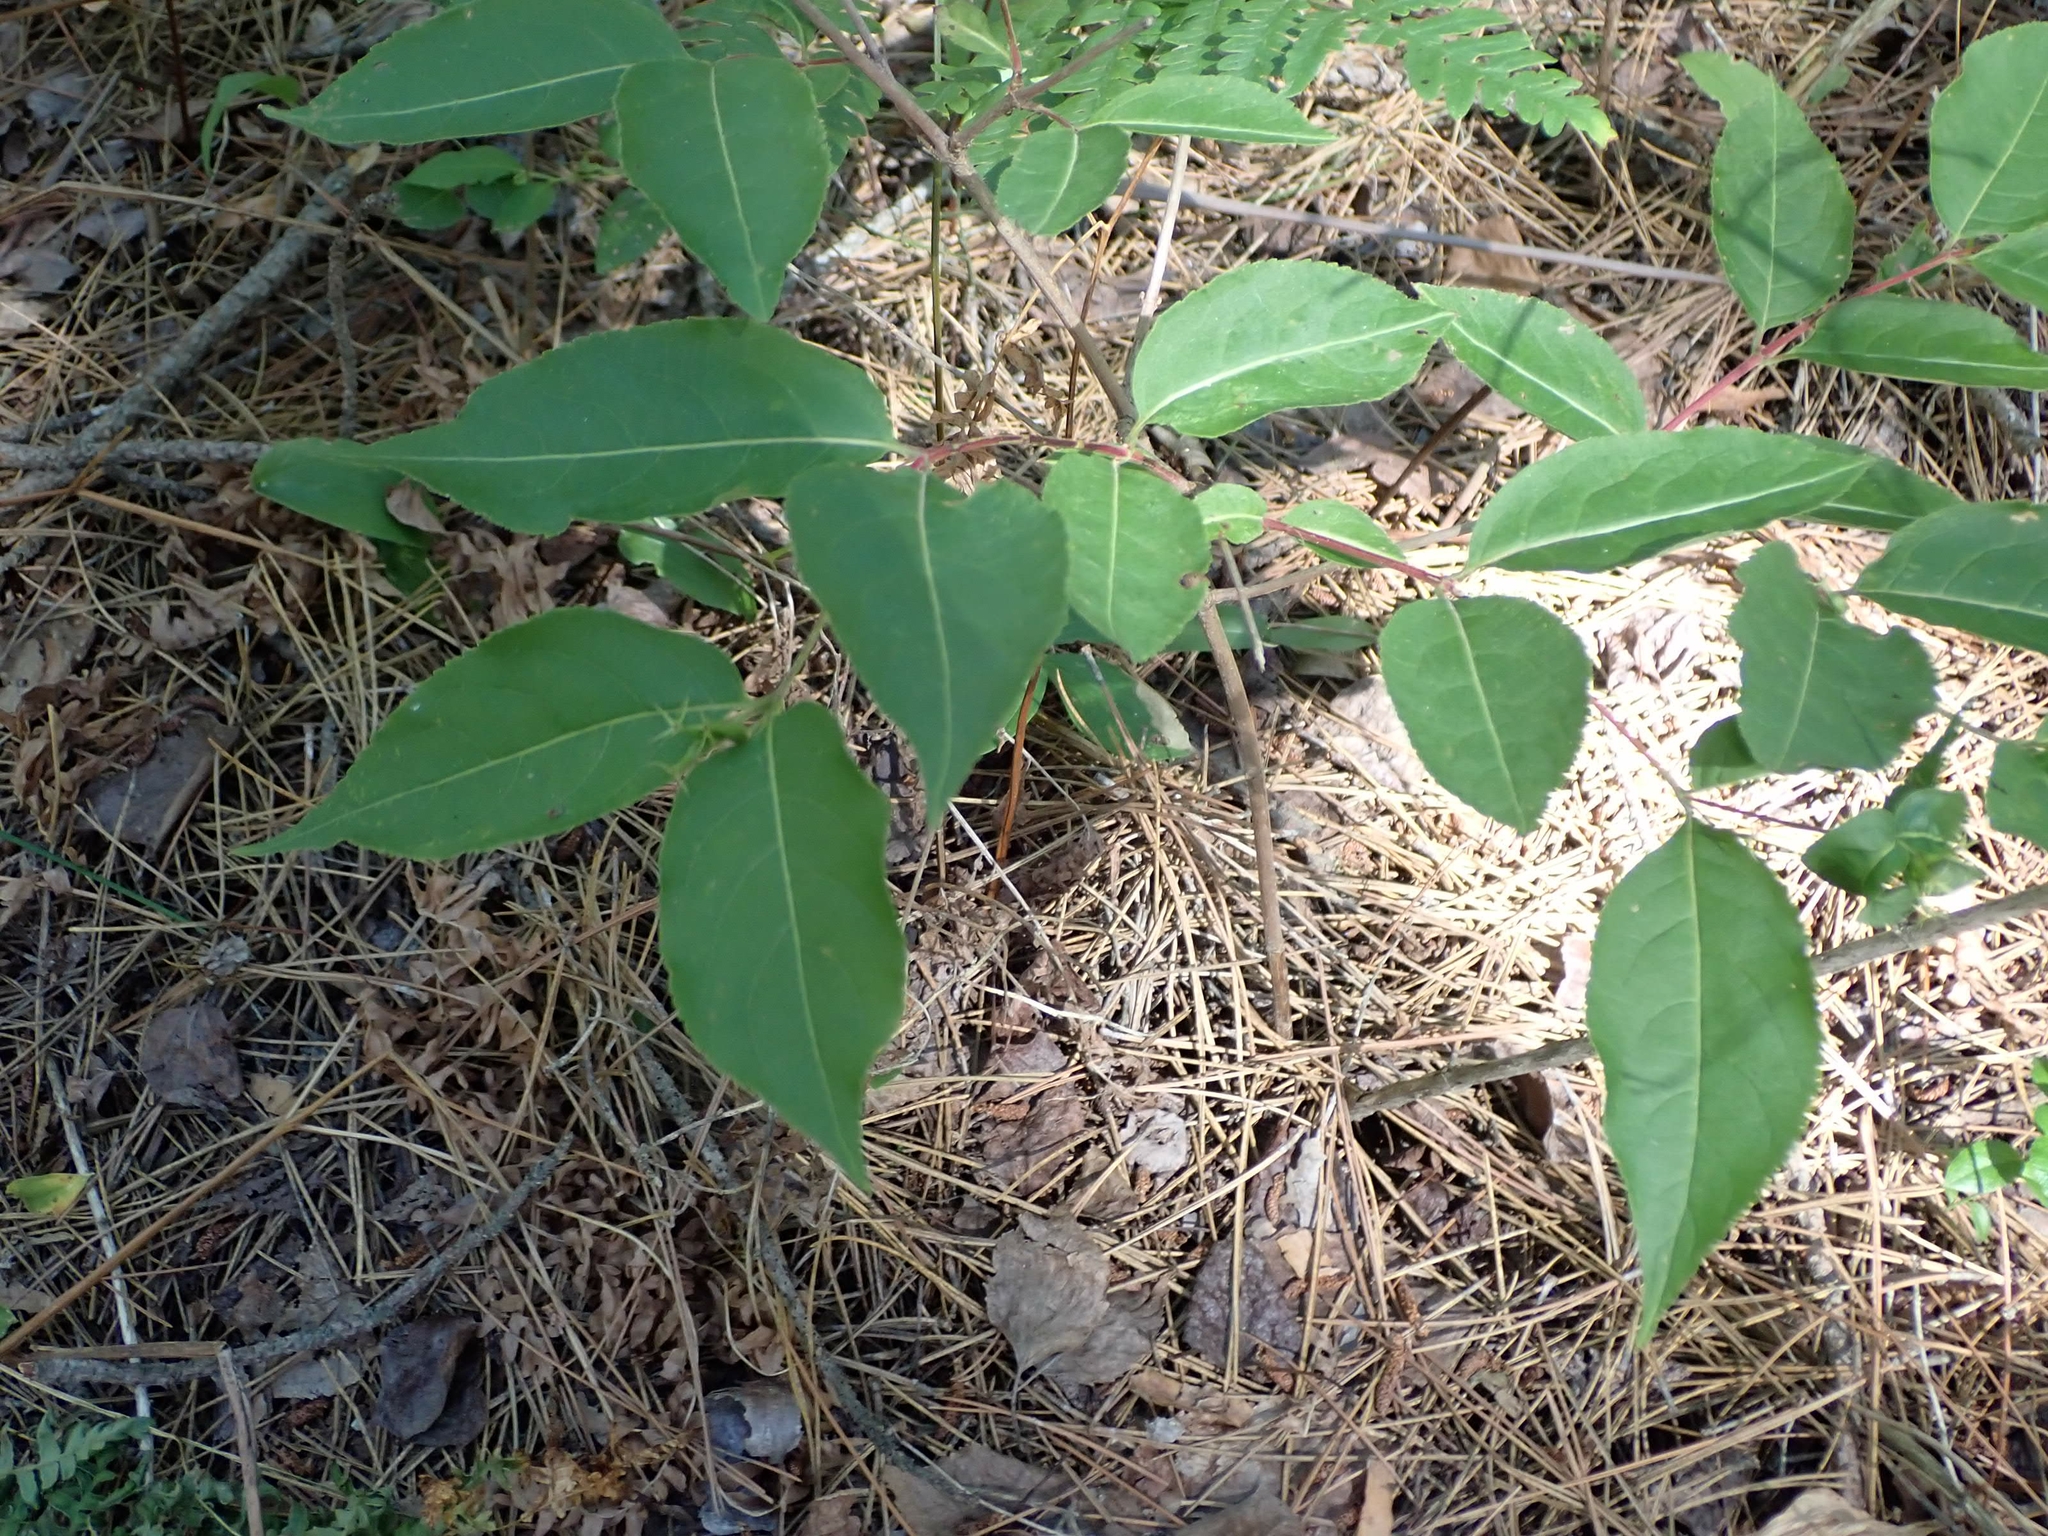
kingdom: Plantae
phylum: Tracheophyta
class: Magnoliopsida
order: Dipsacales
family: Caprifoliaceae
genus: Diervilla
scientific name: Diervilla lonicera
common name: Bush-honeysuckle
